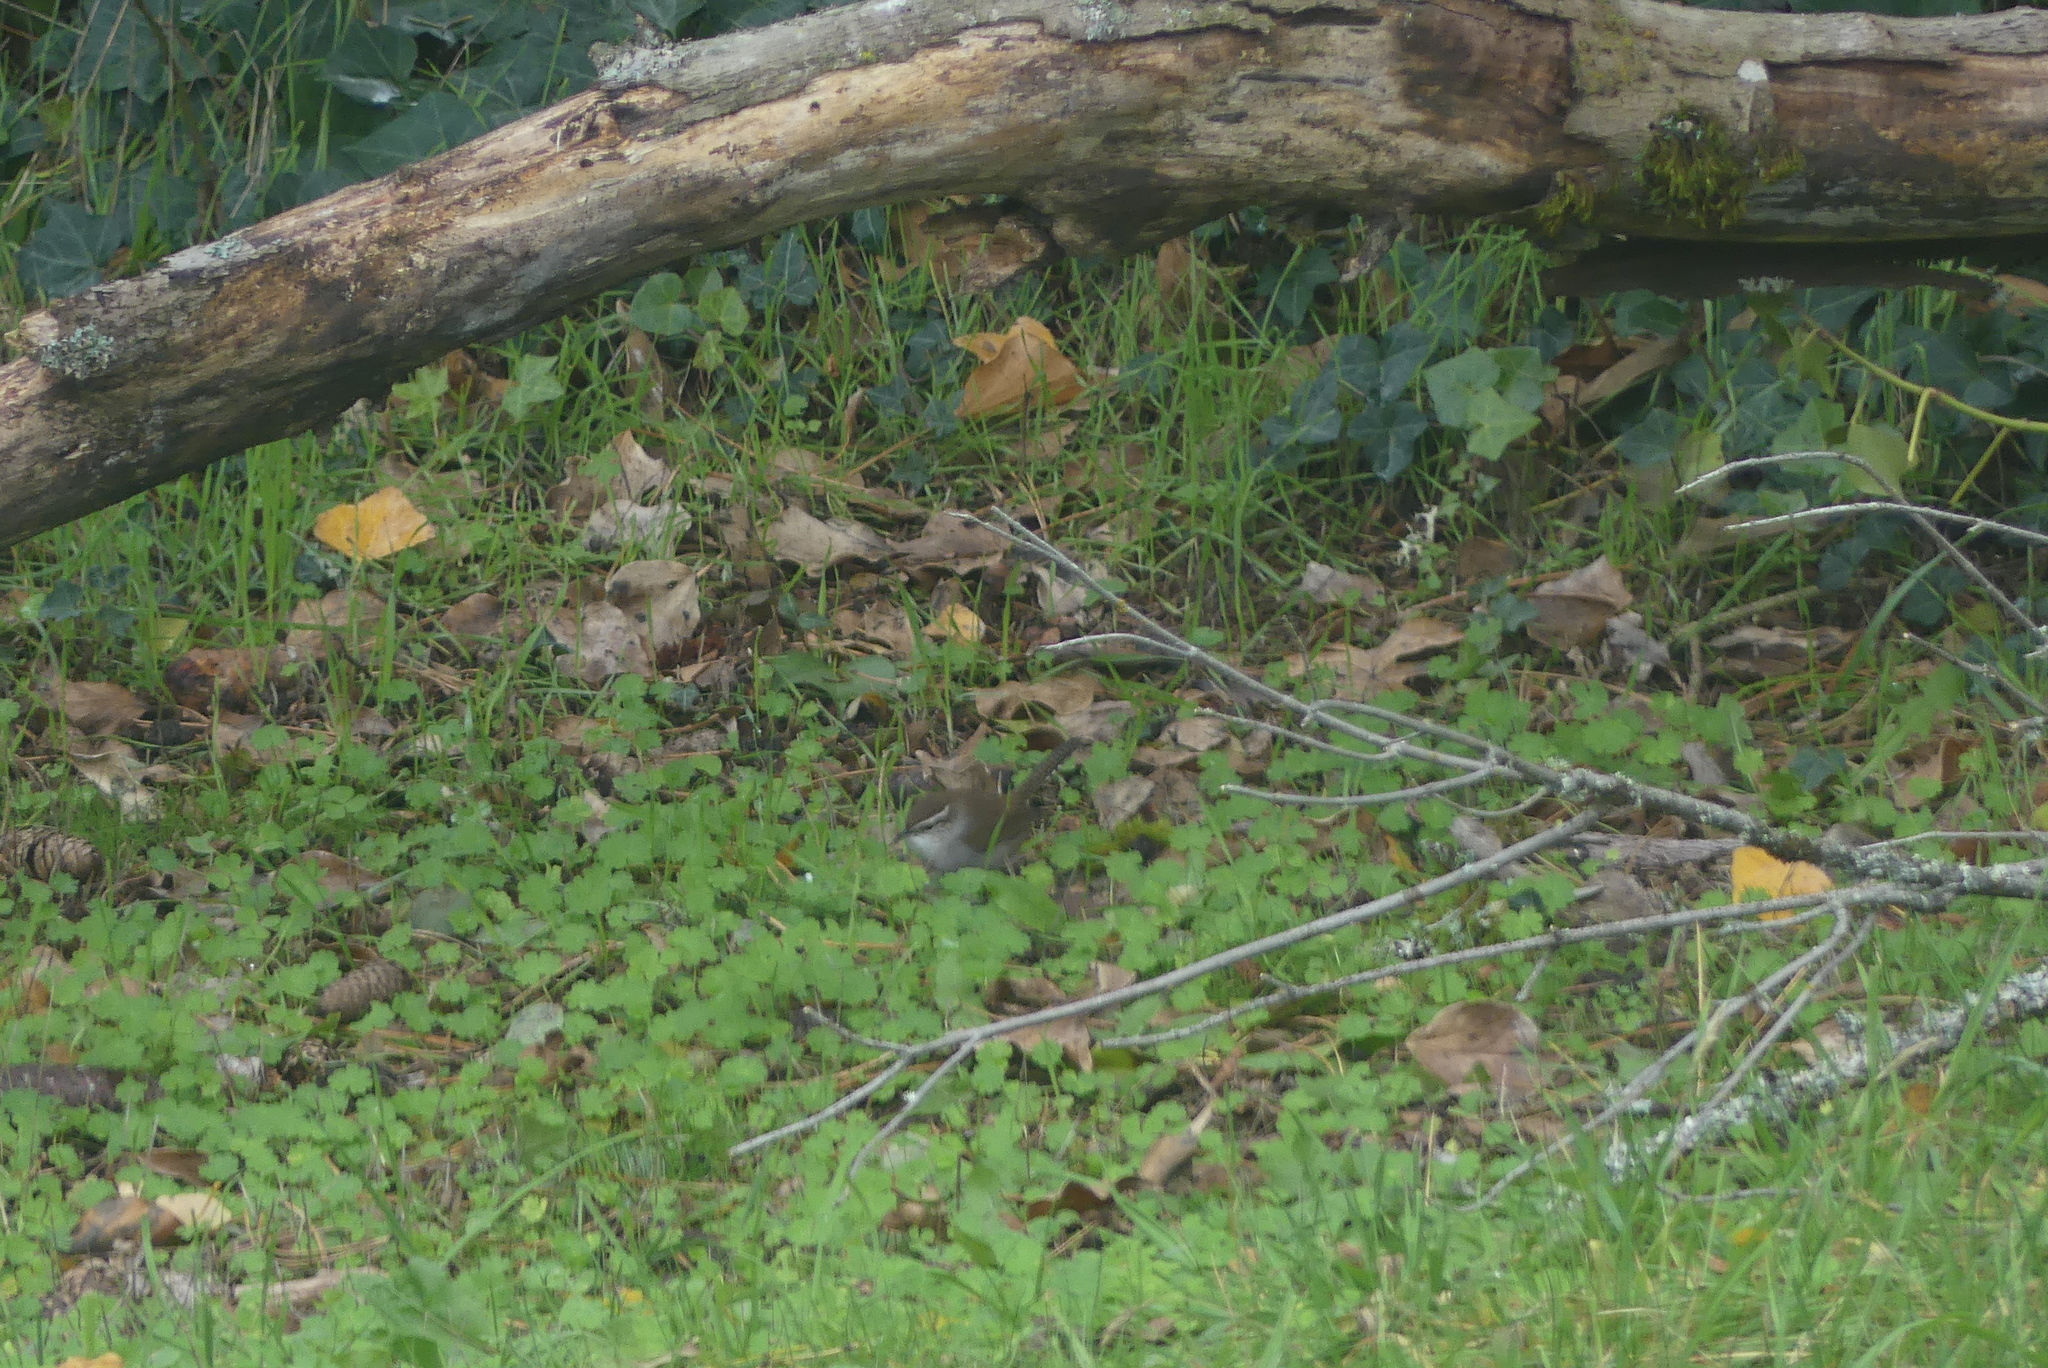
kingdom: Animalia
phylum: Chordata
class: Aves
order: Passeriformes
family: Troglodytidae
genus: Thryomanes
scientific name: Thryomanes bewickii
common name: Bewick's wren
